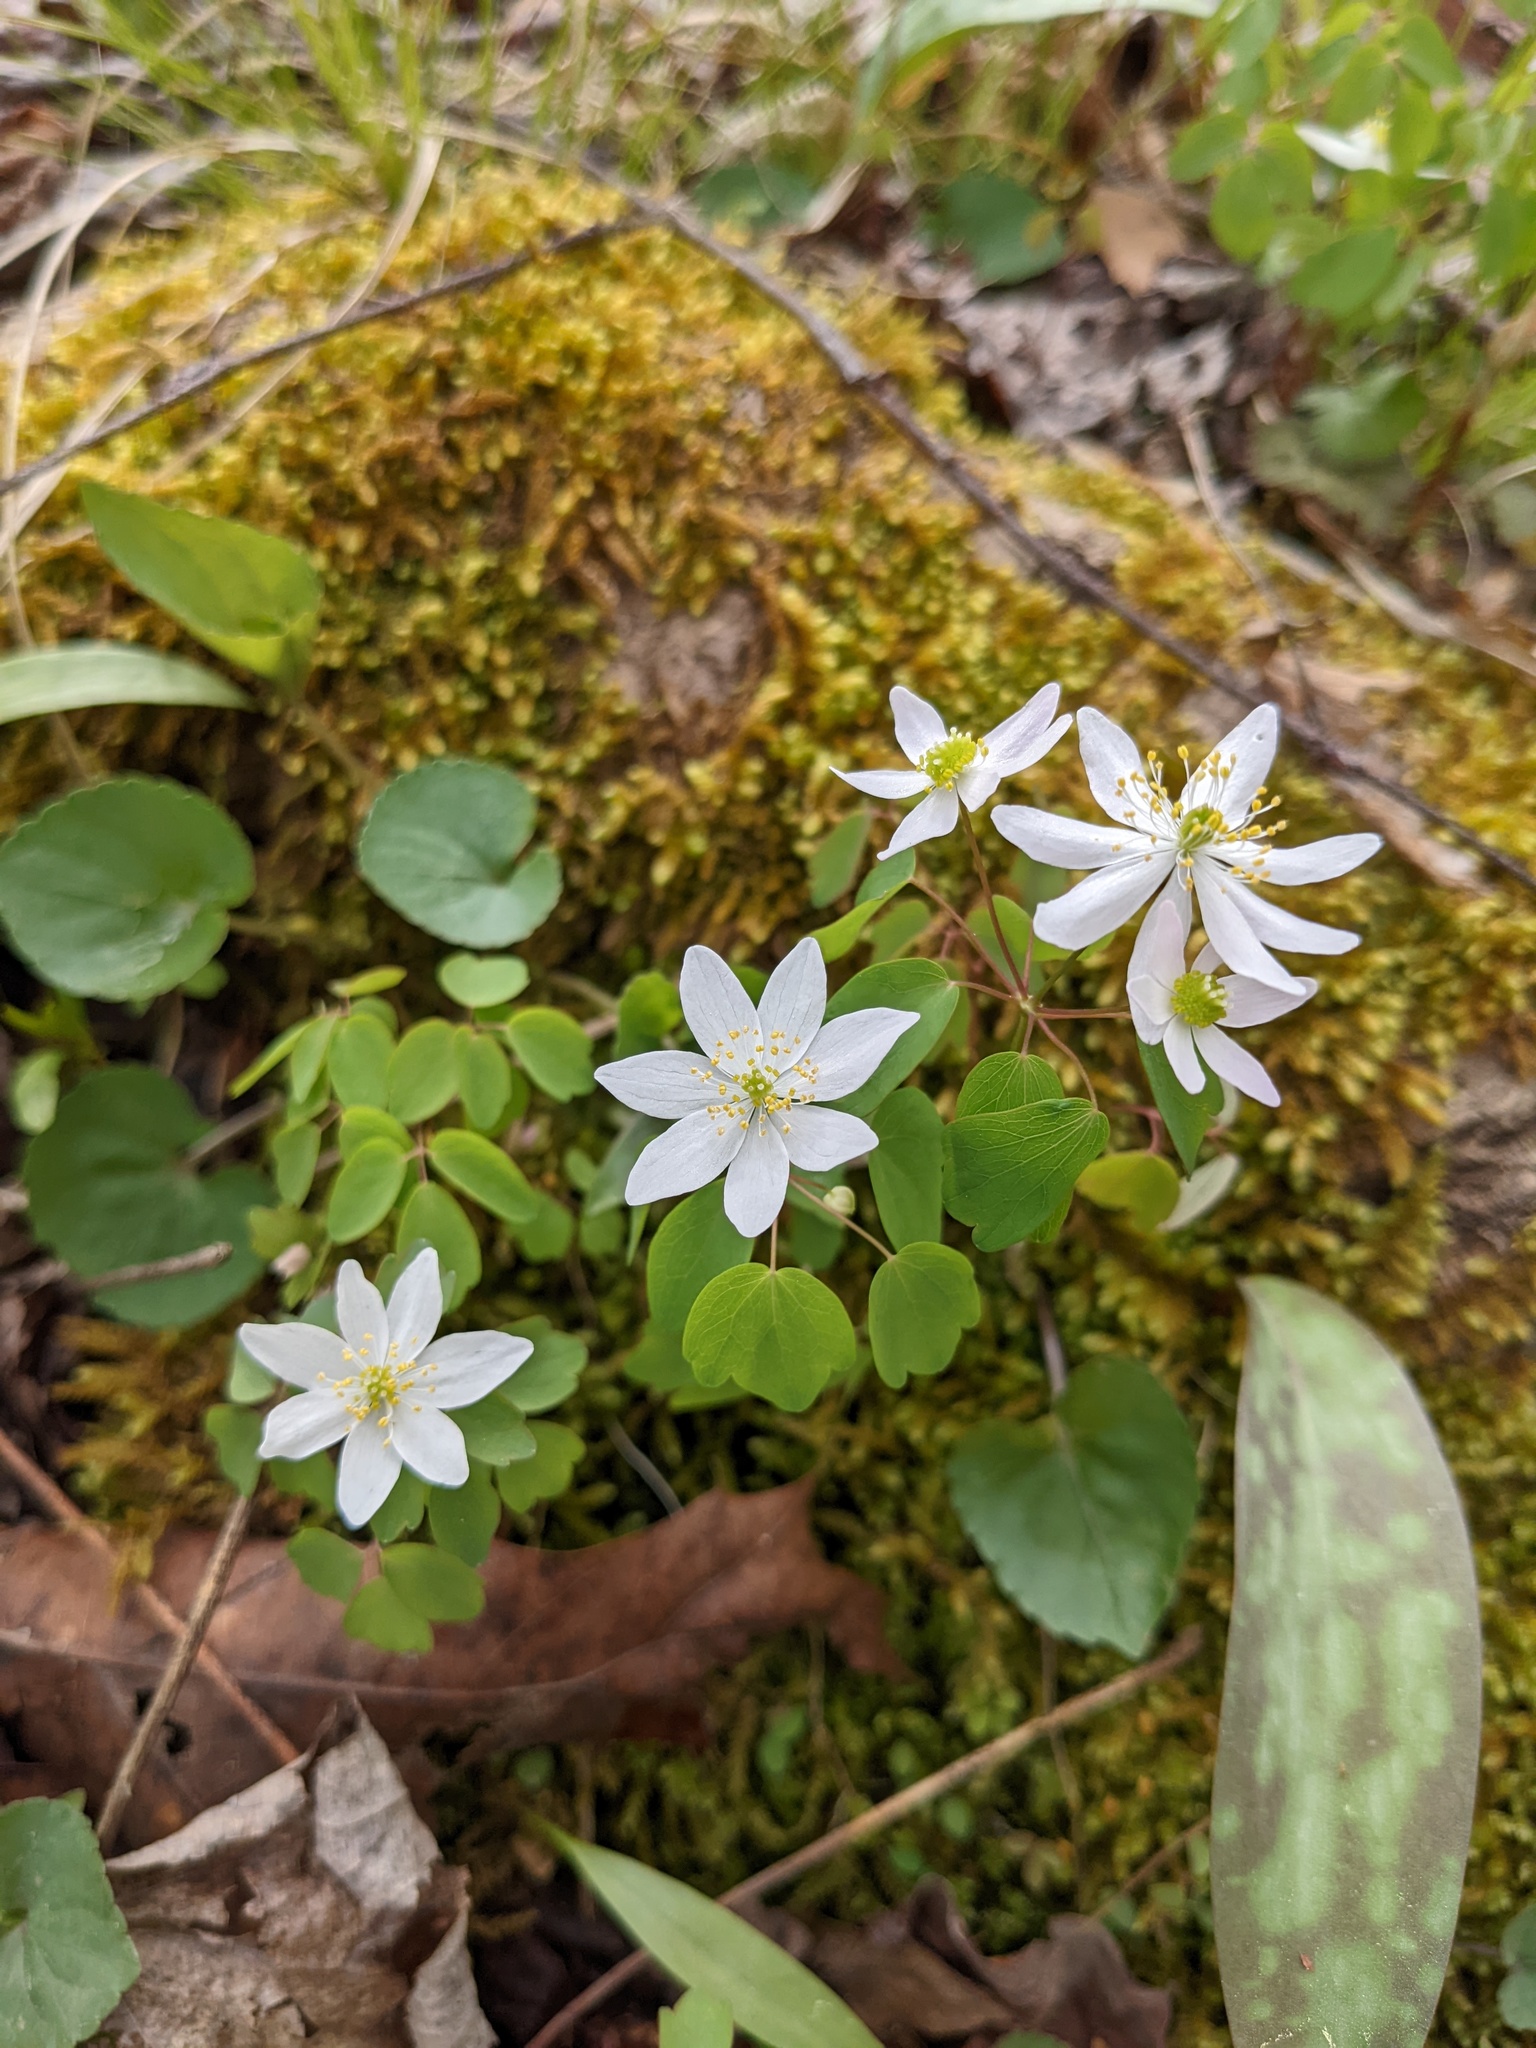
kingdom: Plantae
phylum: Tracheophyta
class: Magnoliopsida
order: Ranunculales
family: Ranunculaceae
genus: Thalictrum
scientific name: Thalictrum thalictroides
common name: Rue-anemone
